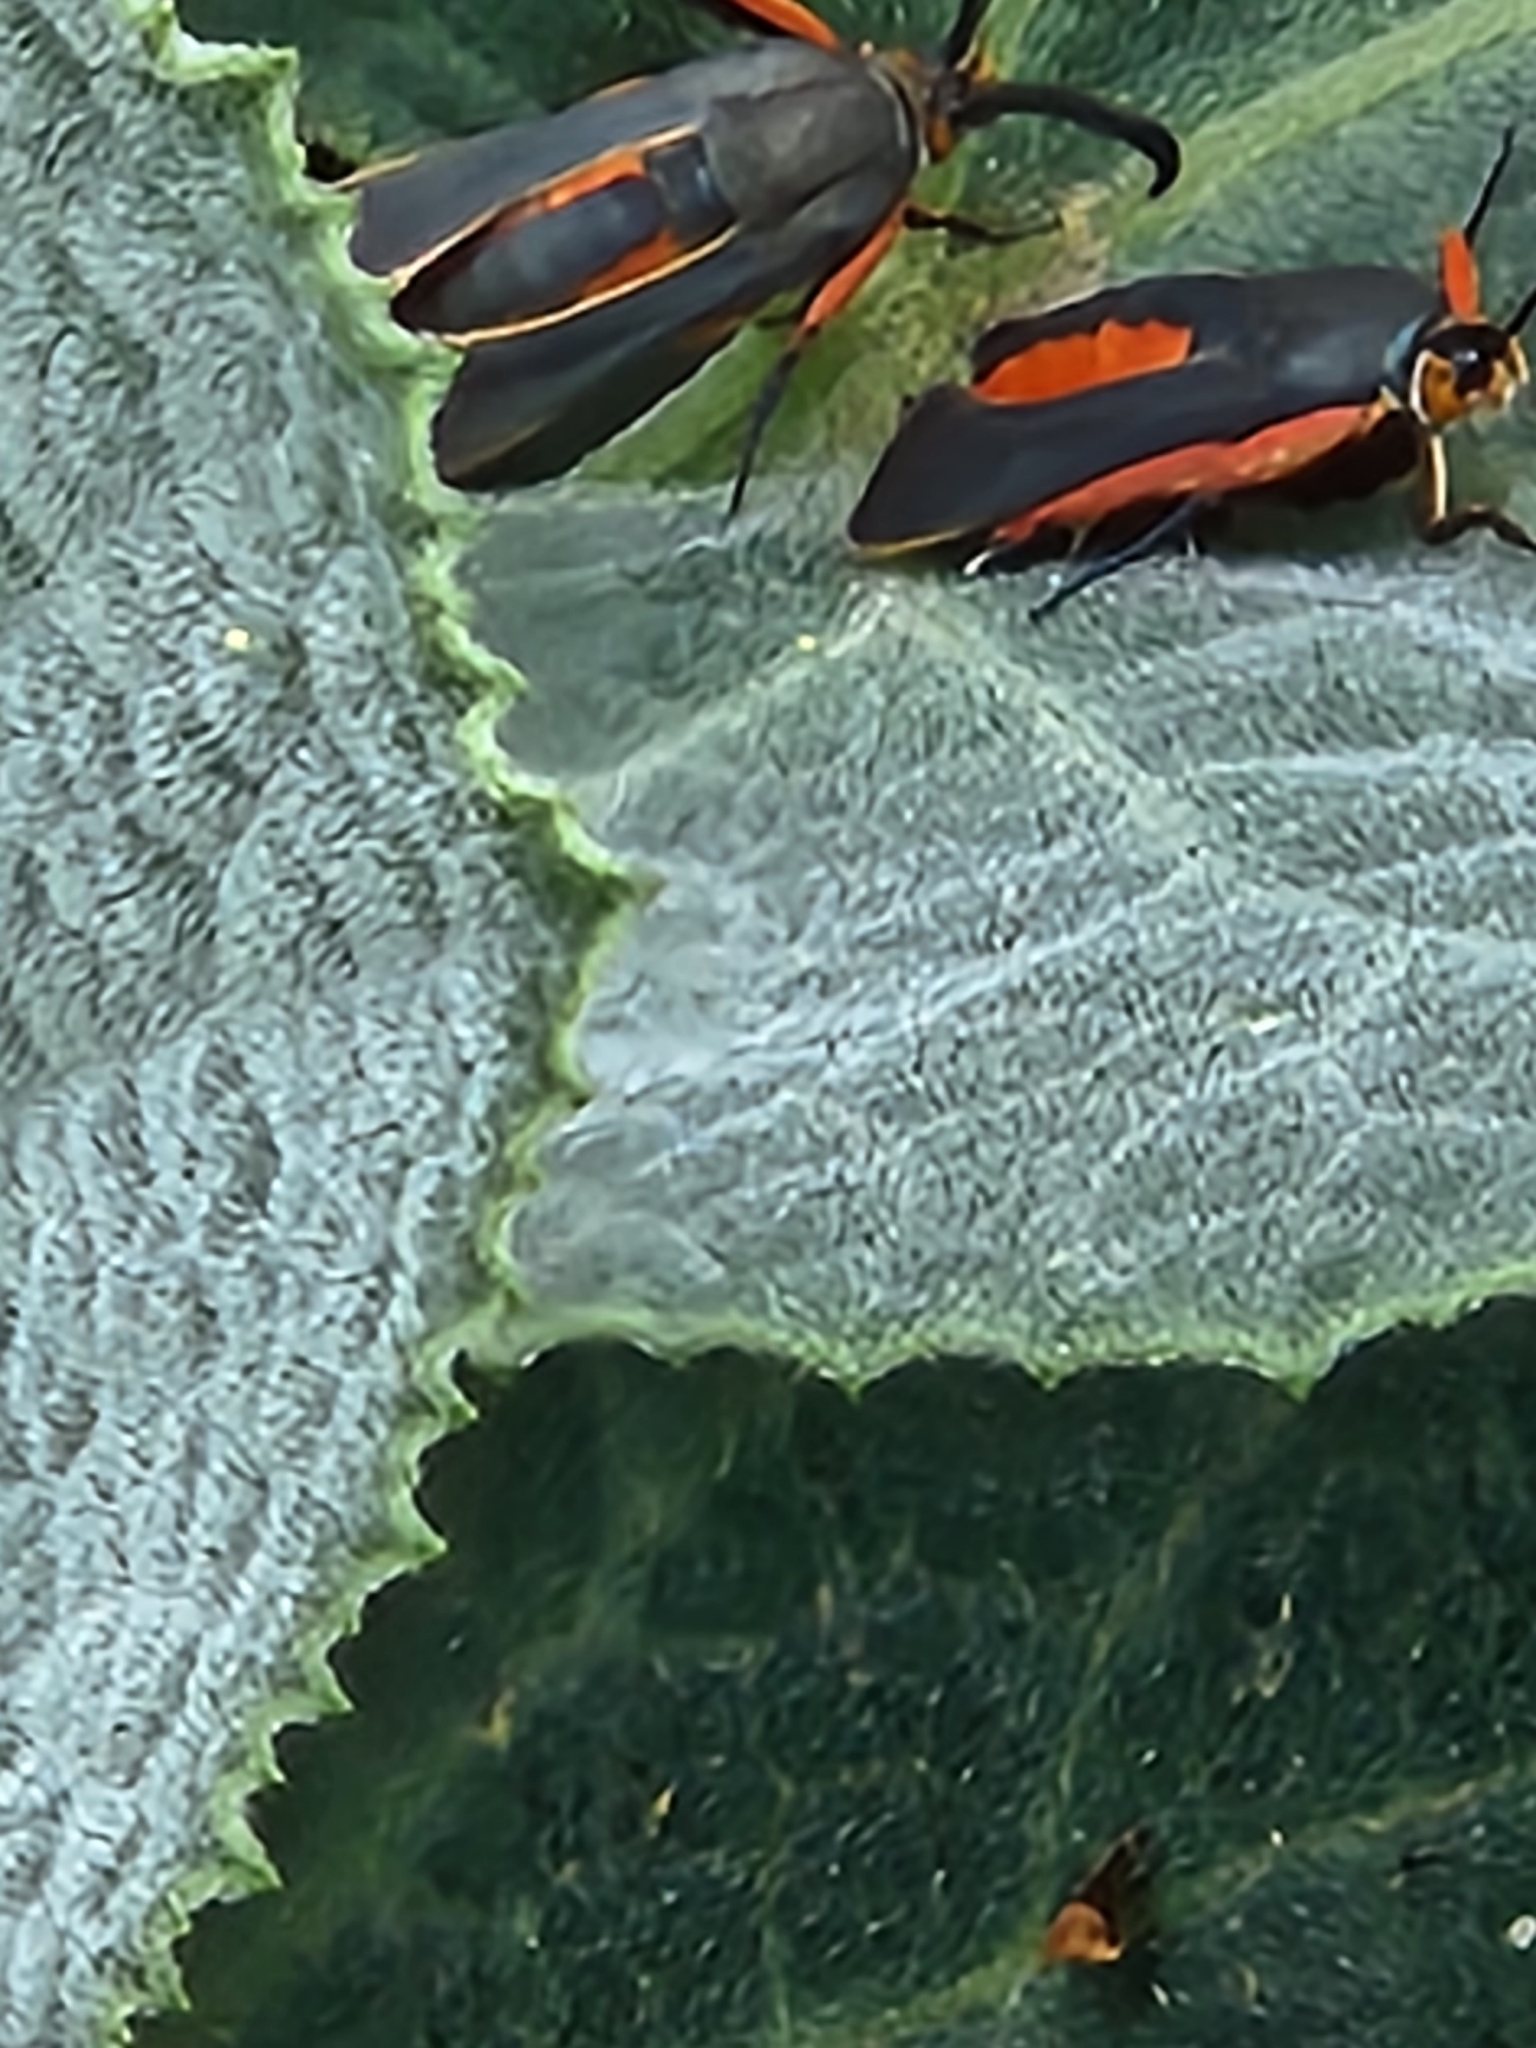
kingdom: Animalia
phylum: Arthropoda
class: Insecta
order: Lepidoptera
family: Sesiidae
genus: Eichlinia
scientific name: Eichlinia snowii
